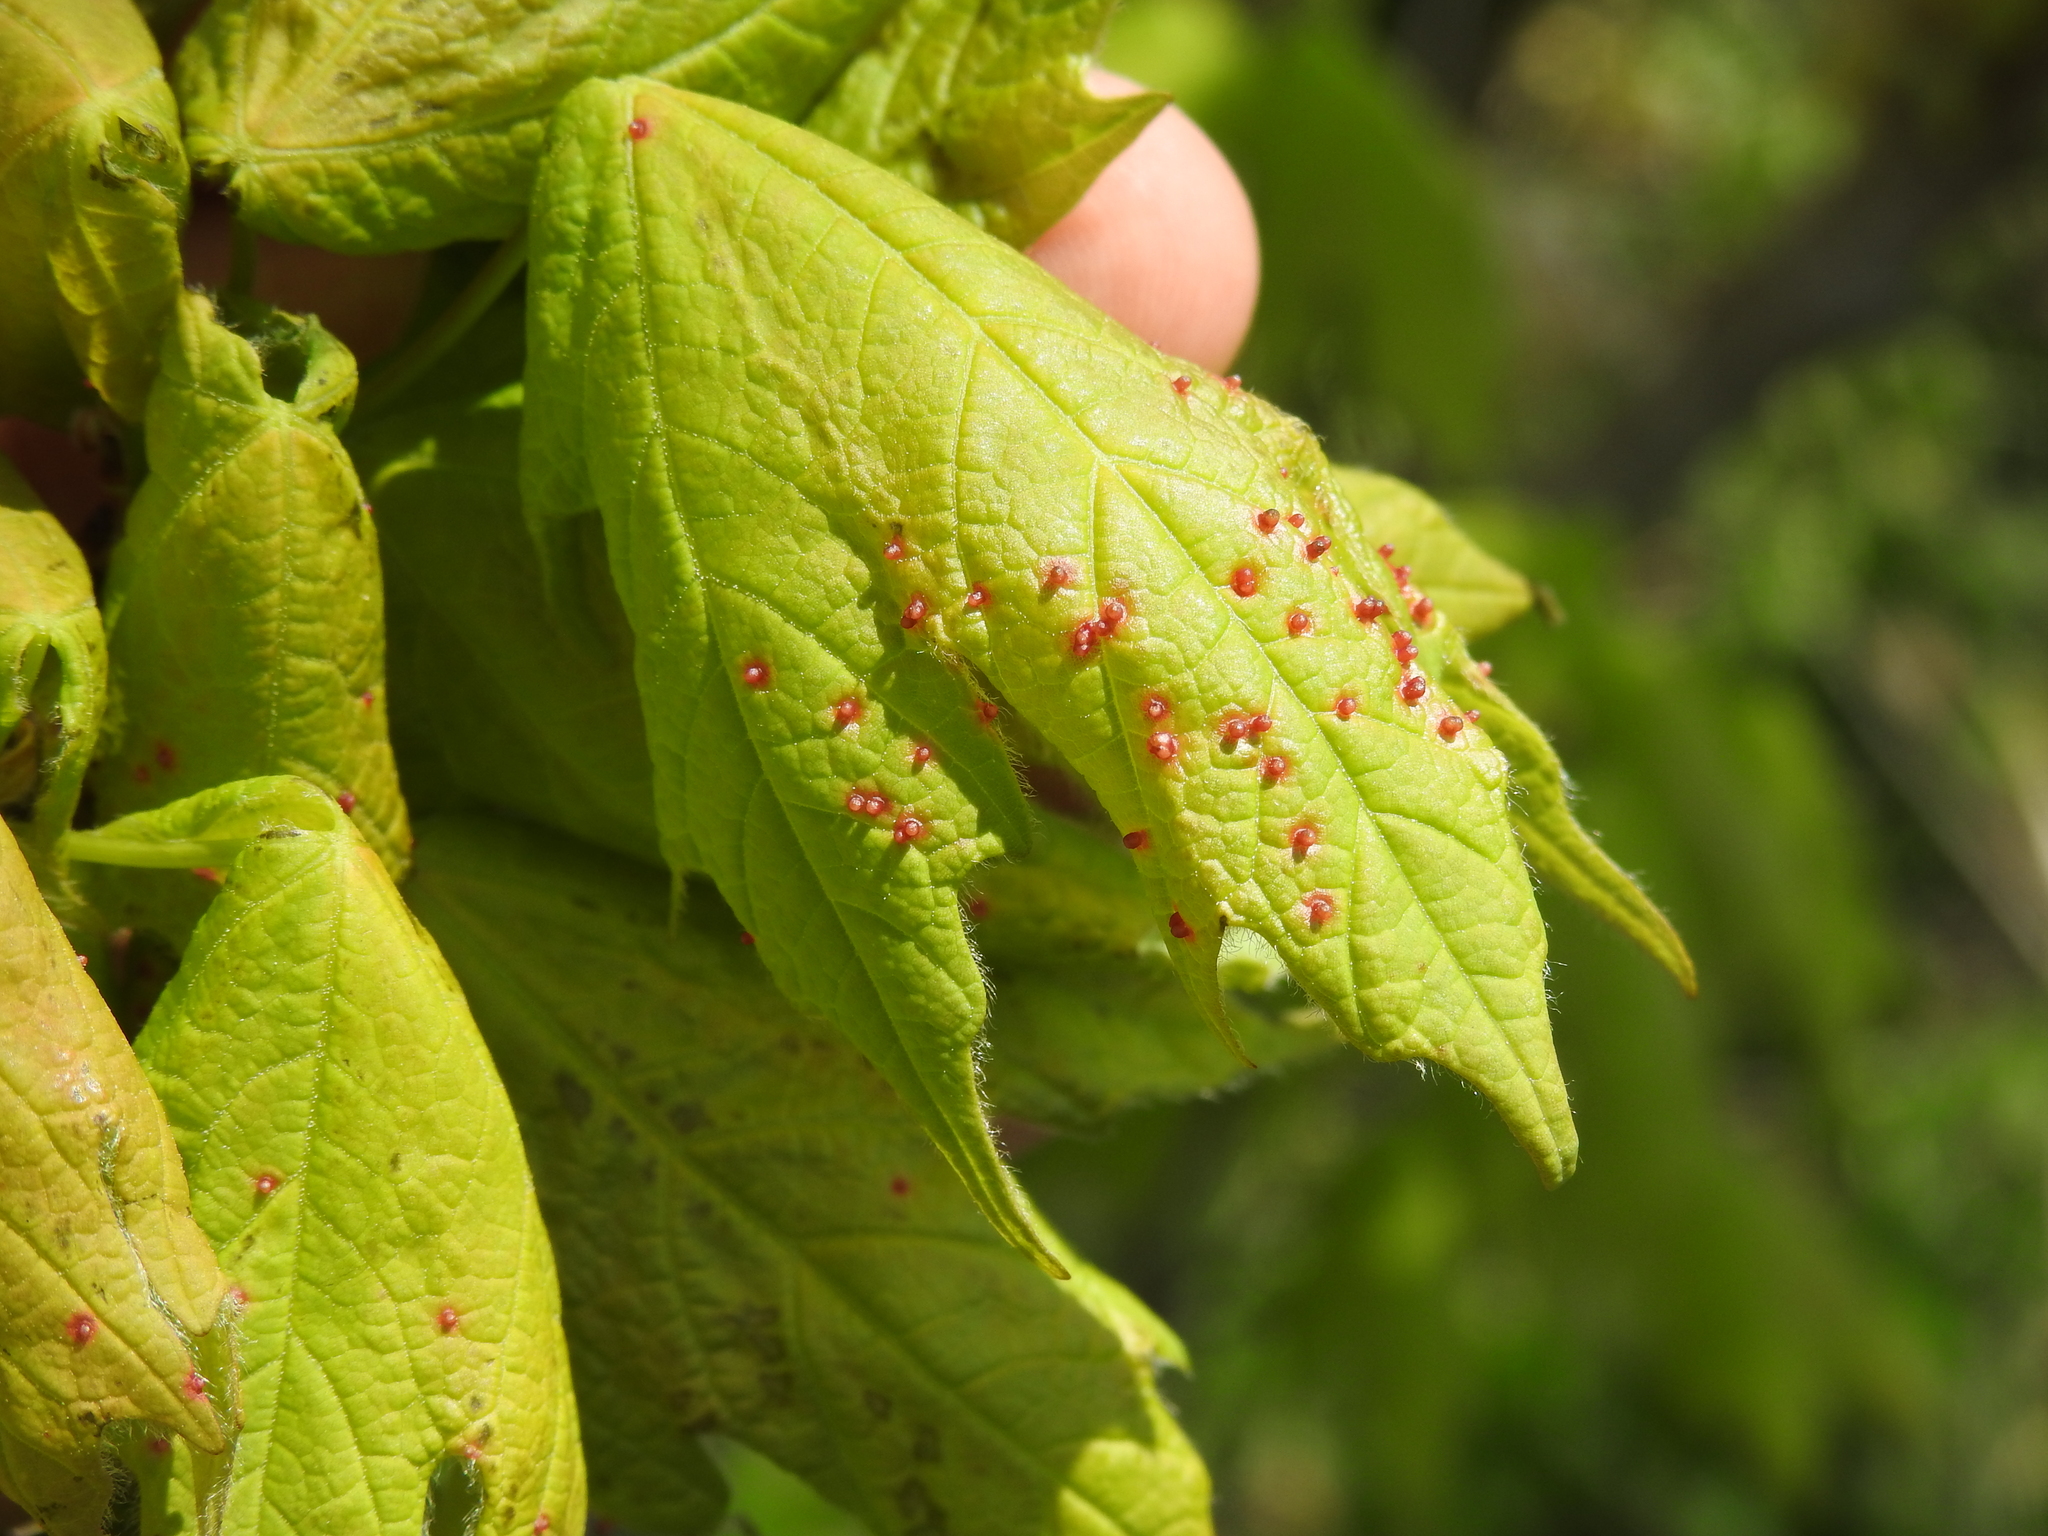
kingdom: Animalia
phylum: Arthropoda
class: Arachnida
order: Trombidiformes
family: Eriophyidae
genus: Vasates
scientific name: Vasates aceriscrumena
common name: Maple spindle gall mite
